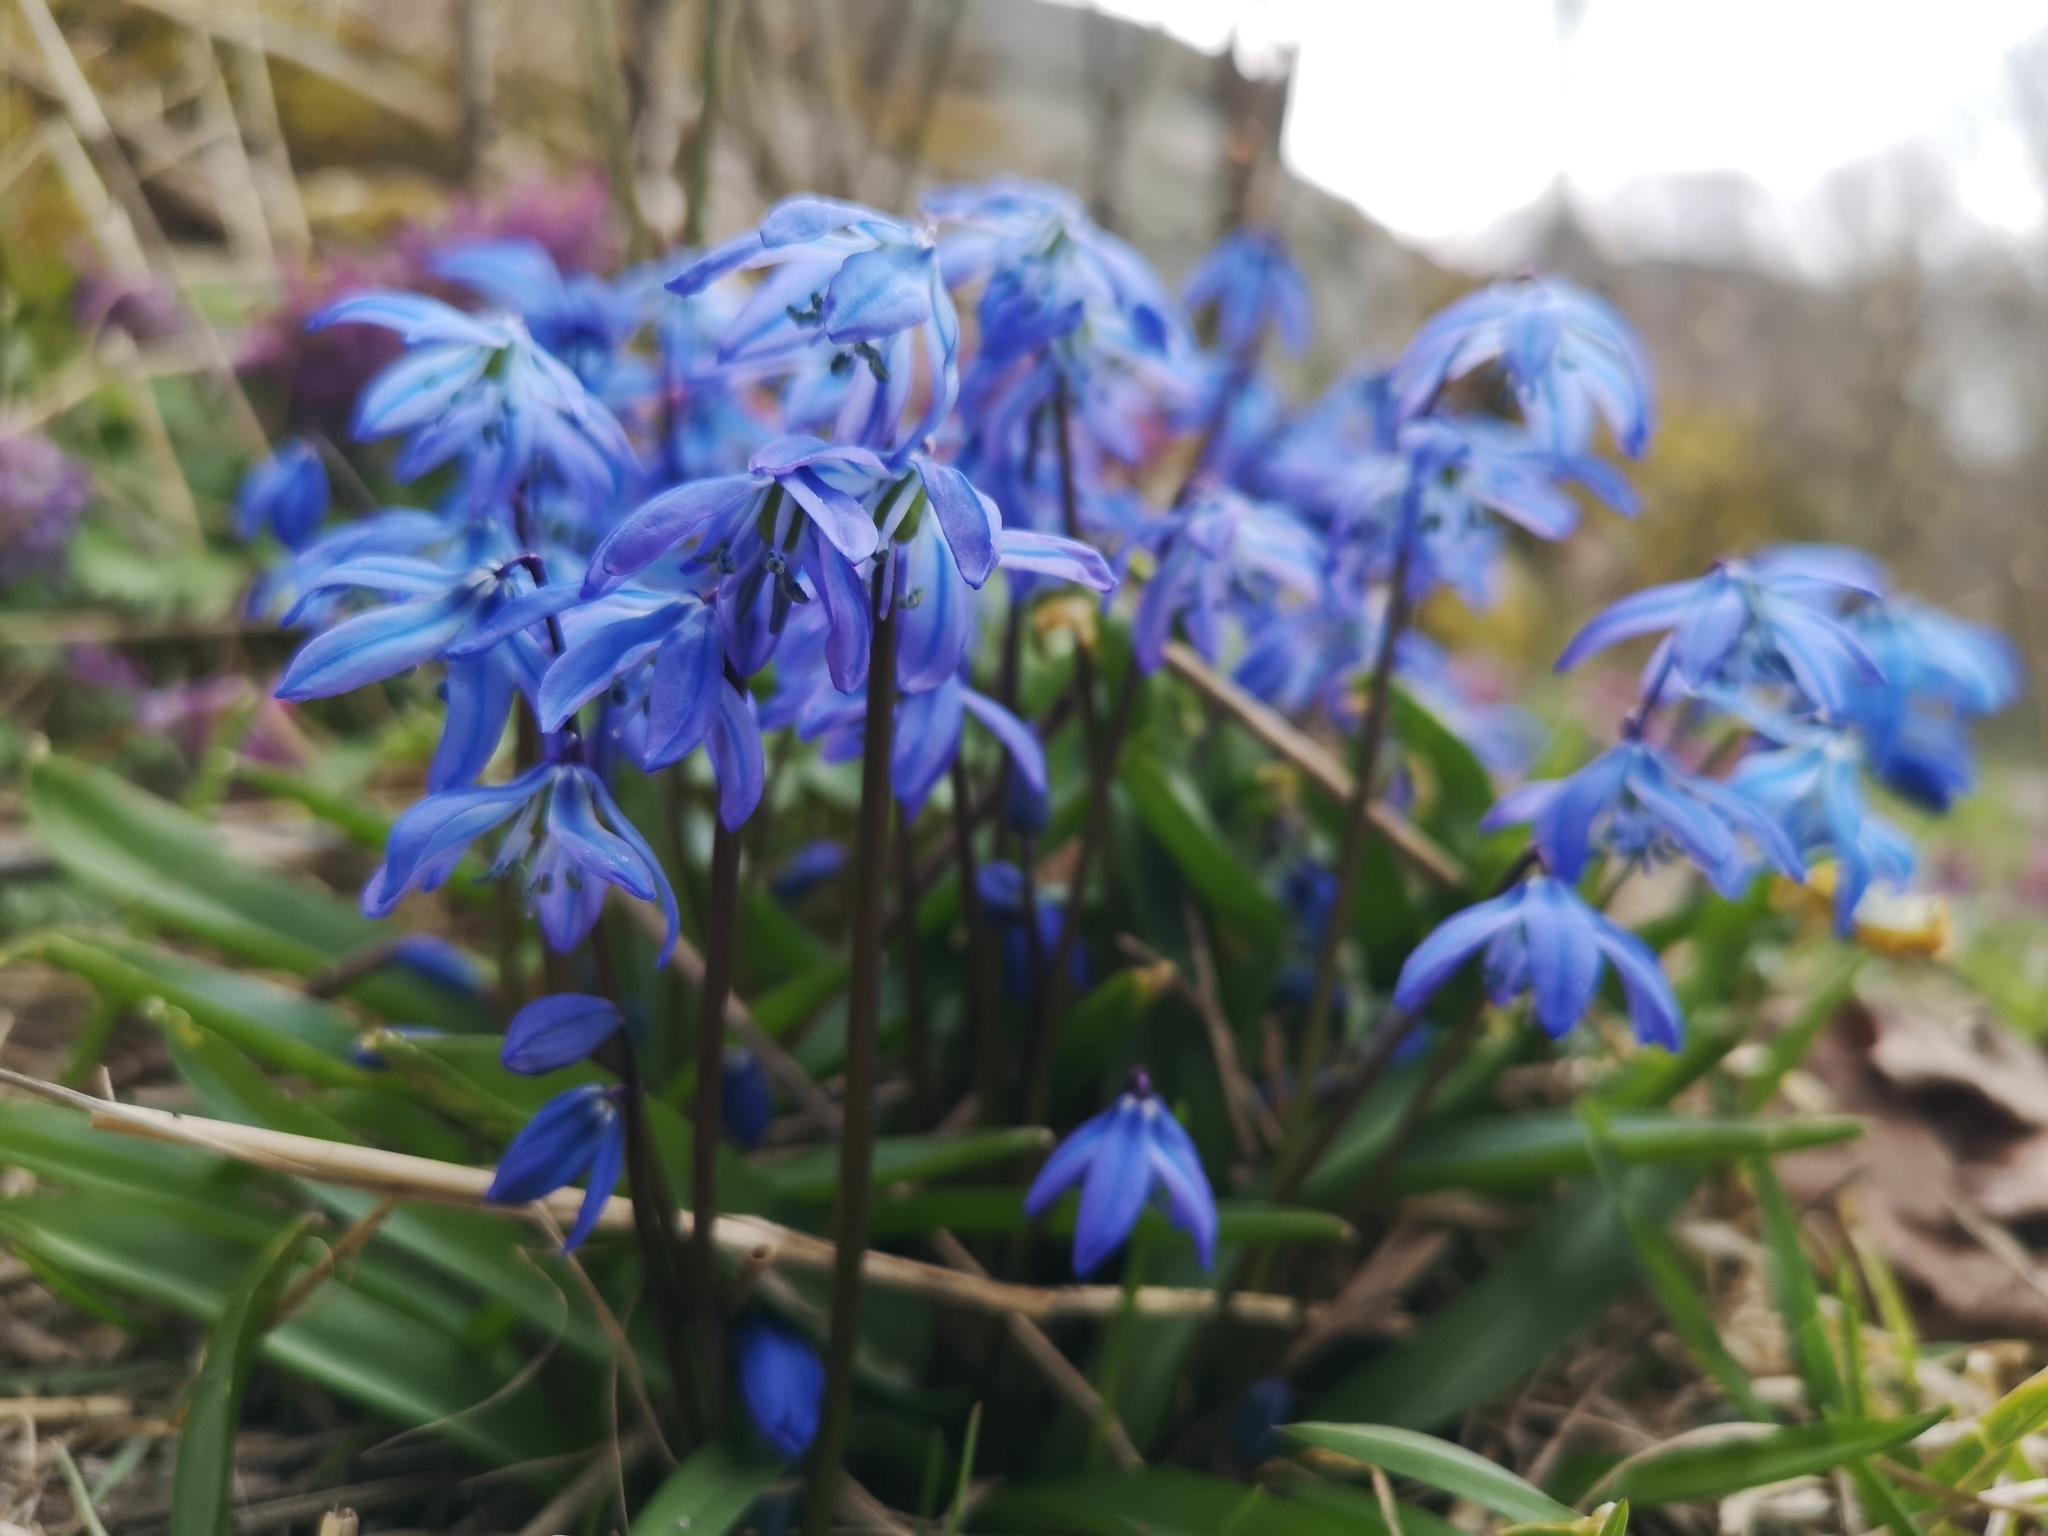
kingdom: Plantae
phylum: Tracheophyta
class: Liliopsida
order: Asparagales
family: Asparagaceae
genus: Scilla
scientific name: Scilla siberica
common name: Siberian squill
